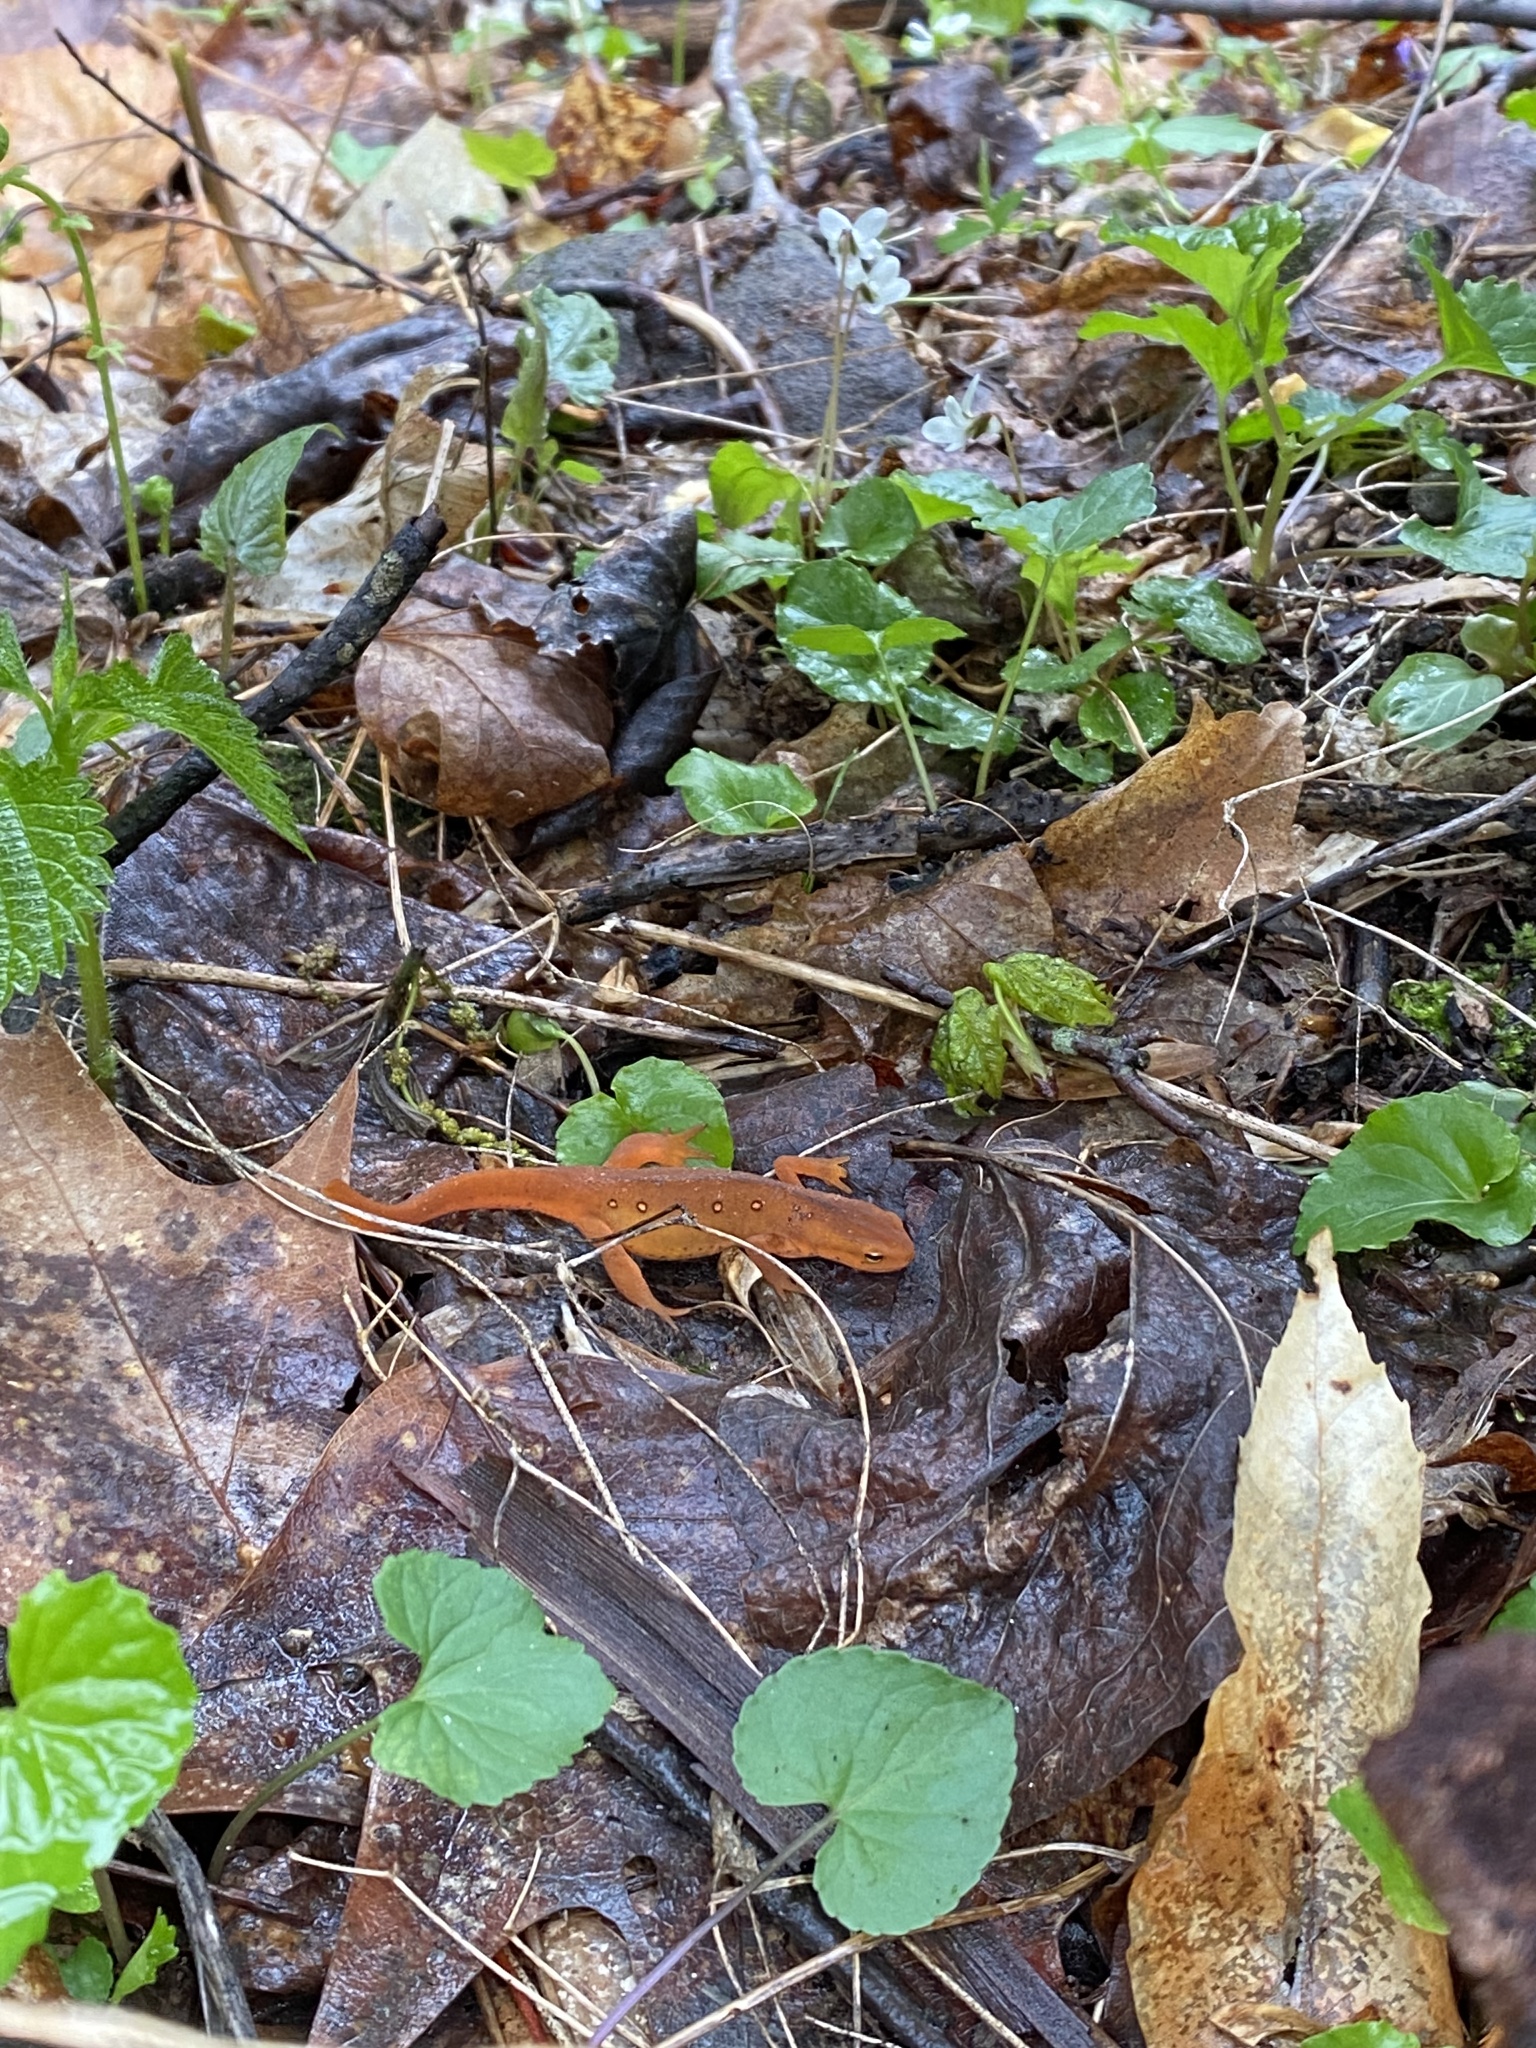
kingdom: Animalia
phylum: Chordata
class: Amphibia
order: Caudata
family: Salamandridae
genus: Notophthalmus
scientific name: Notophthalmus viridescens
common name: Eastern newt
